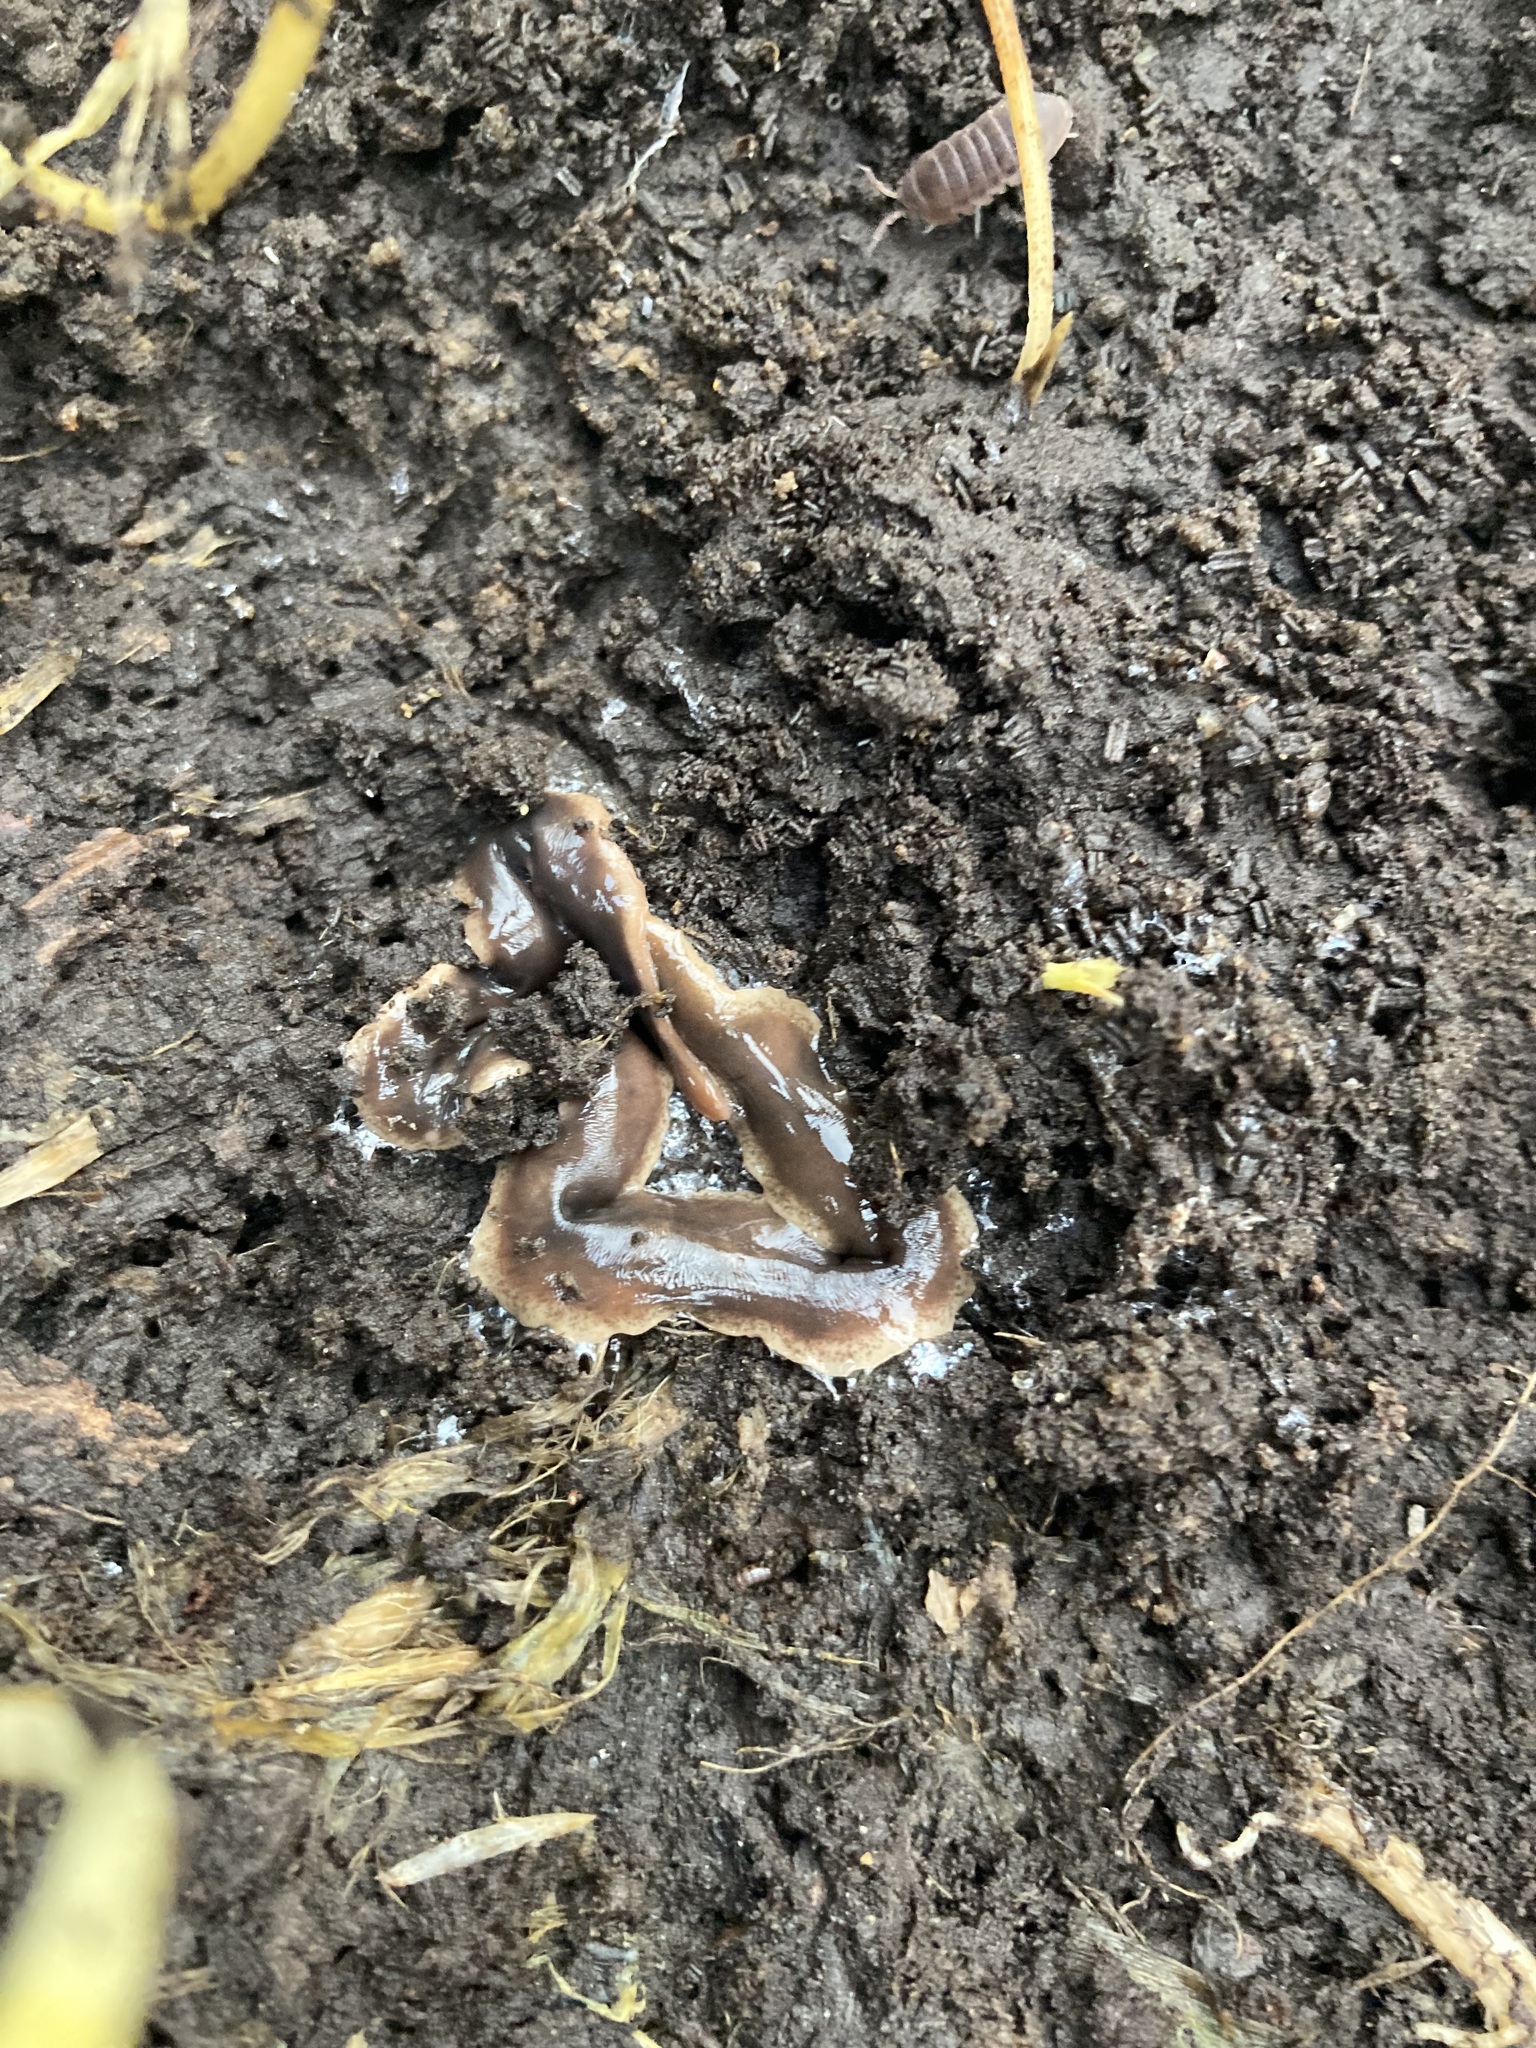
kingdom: Animalia
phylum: Platyhelminthes
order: Tricladida
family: Geoplanidae
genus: Arthurdendyus
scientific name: Arthurdendyus triangulatus
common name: New zealand flatworm
